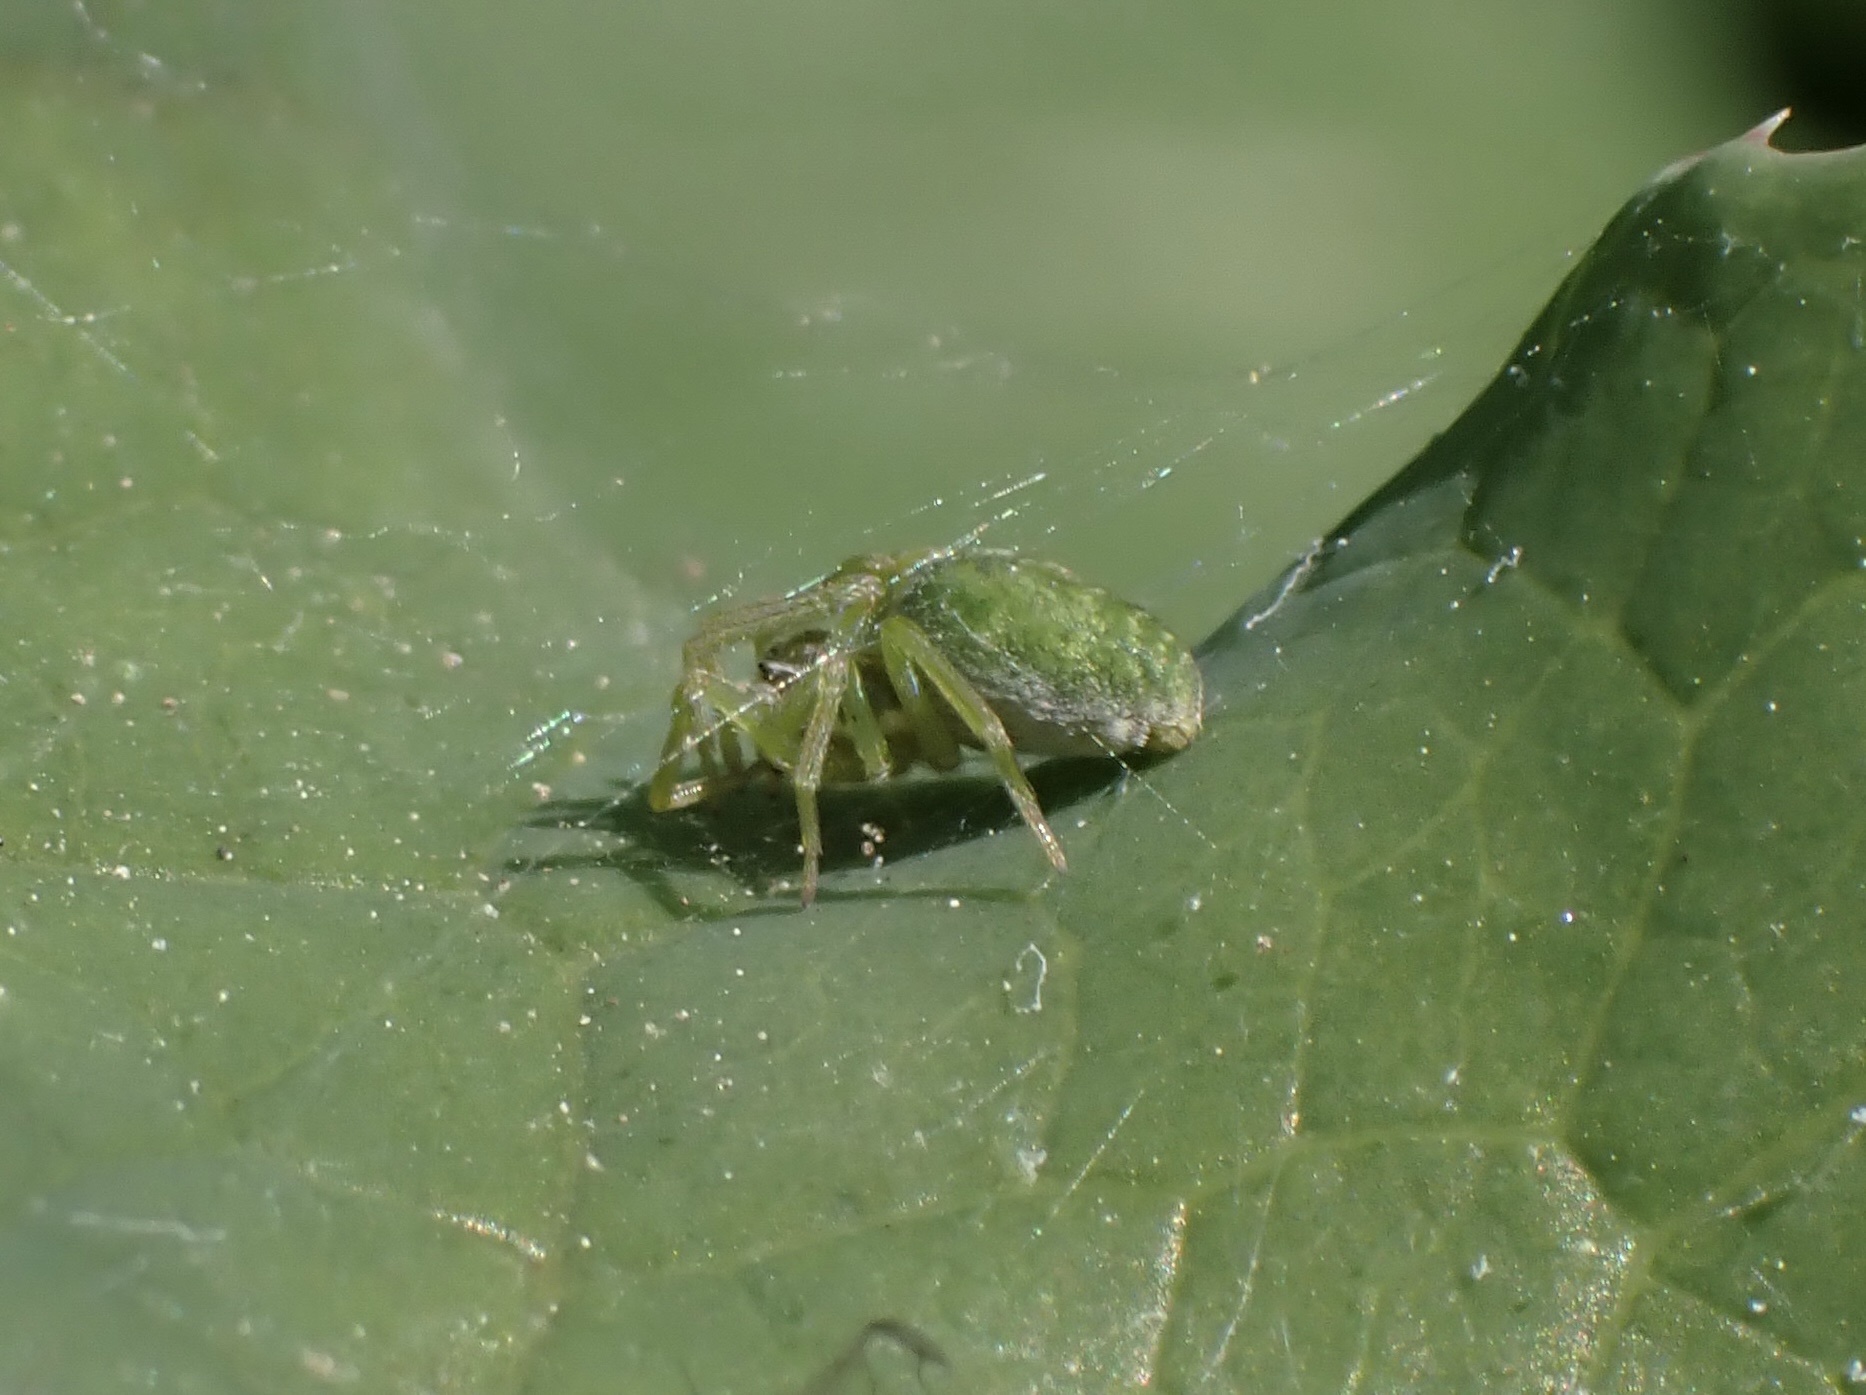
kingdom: Animalia
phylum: Arthropoda
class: Arachnida
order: Araneae
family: Dictynidae
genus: Nigma
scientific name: Nigma walckenaeri
